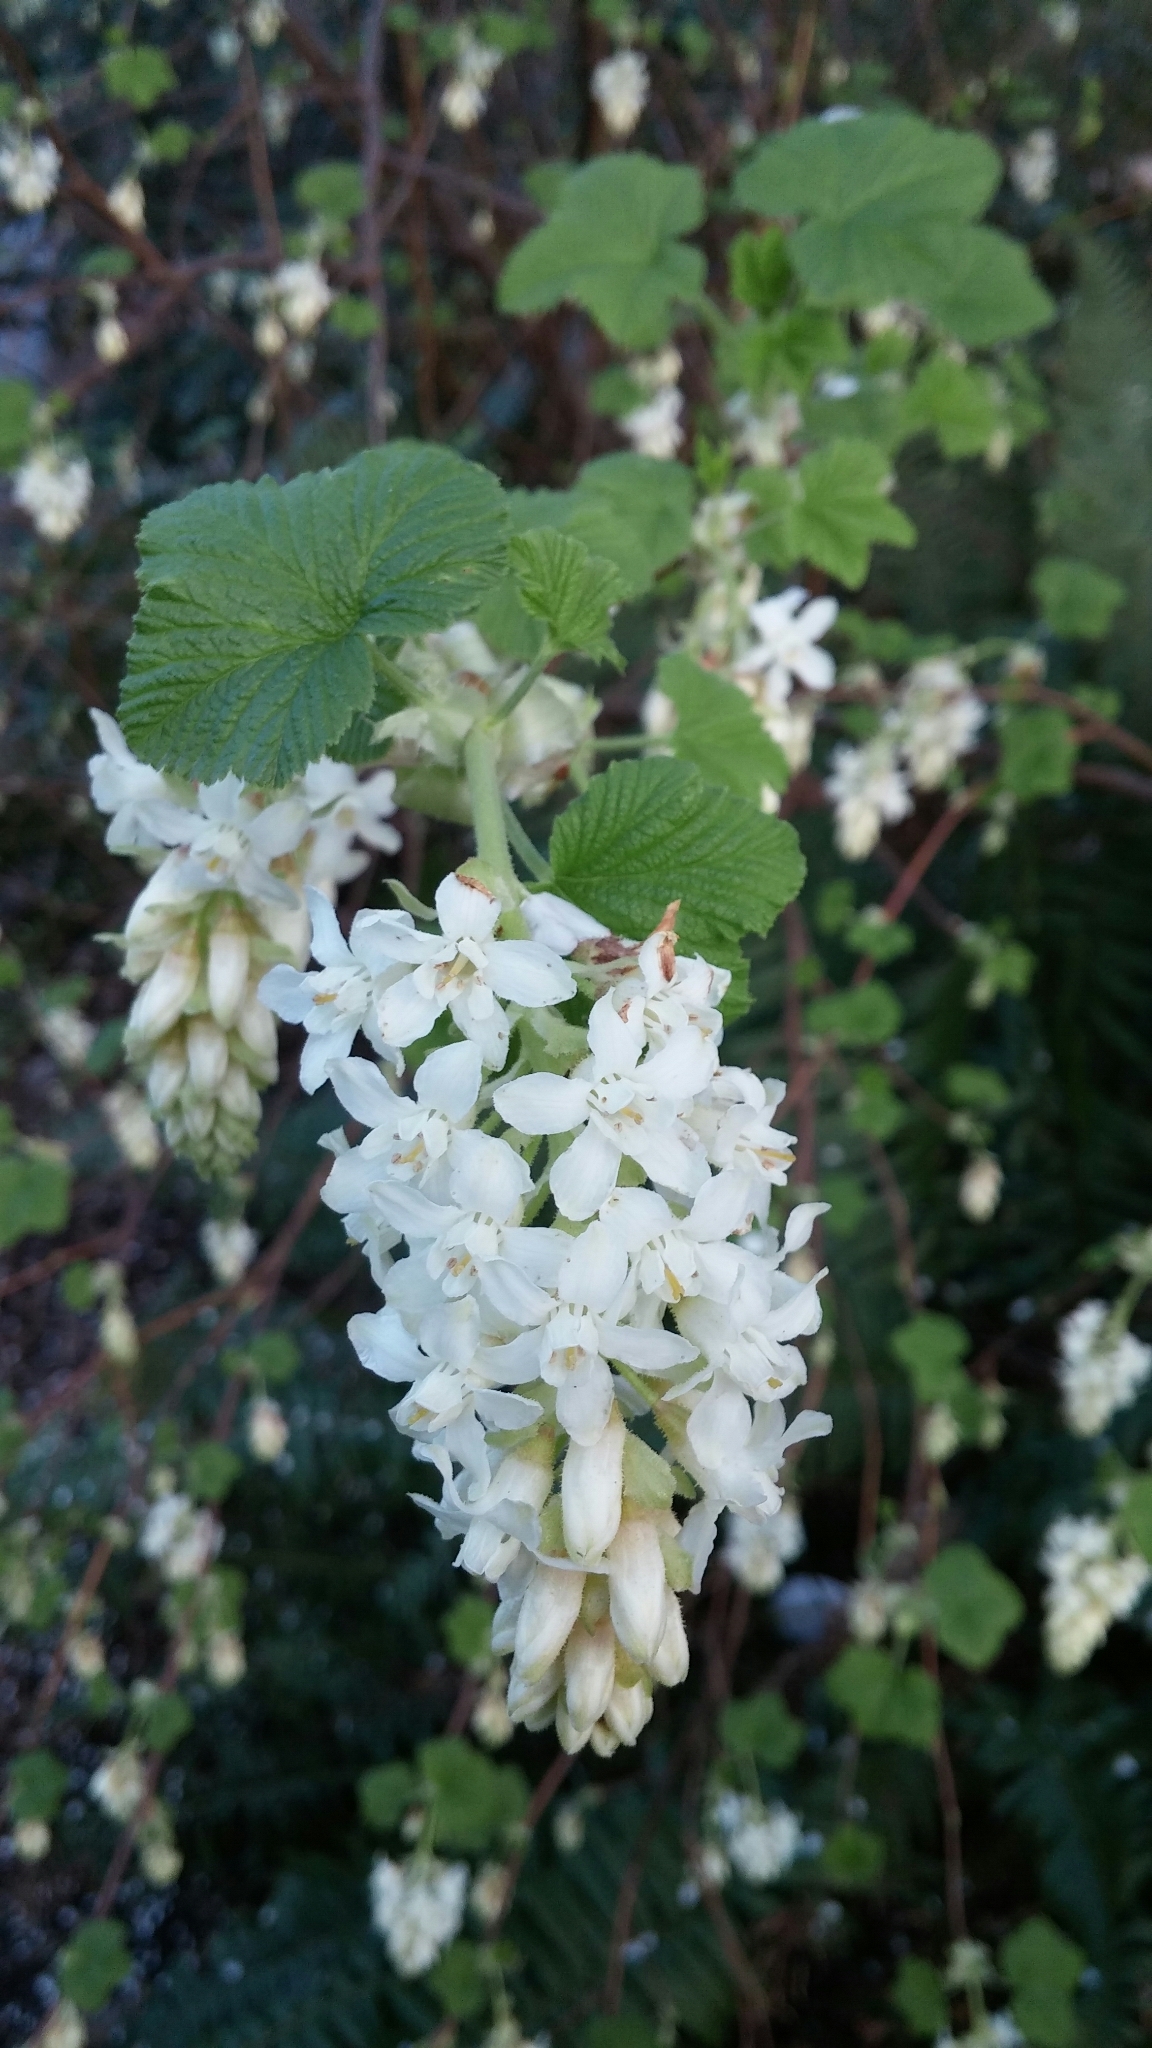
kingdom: Plantae
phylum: Tracheophyta
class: Magnoliopsida
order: Saxifragales
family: Grossulariaceae
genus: Ribes
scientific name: Ribes sanguineum
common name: Flowering currant
